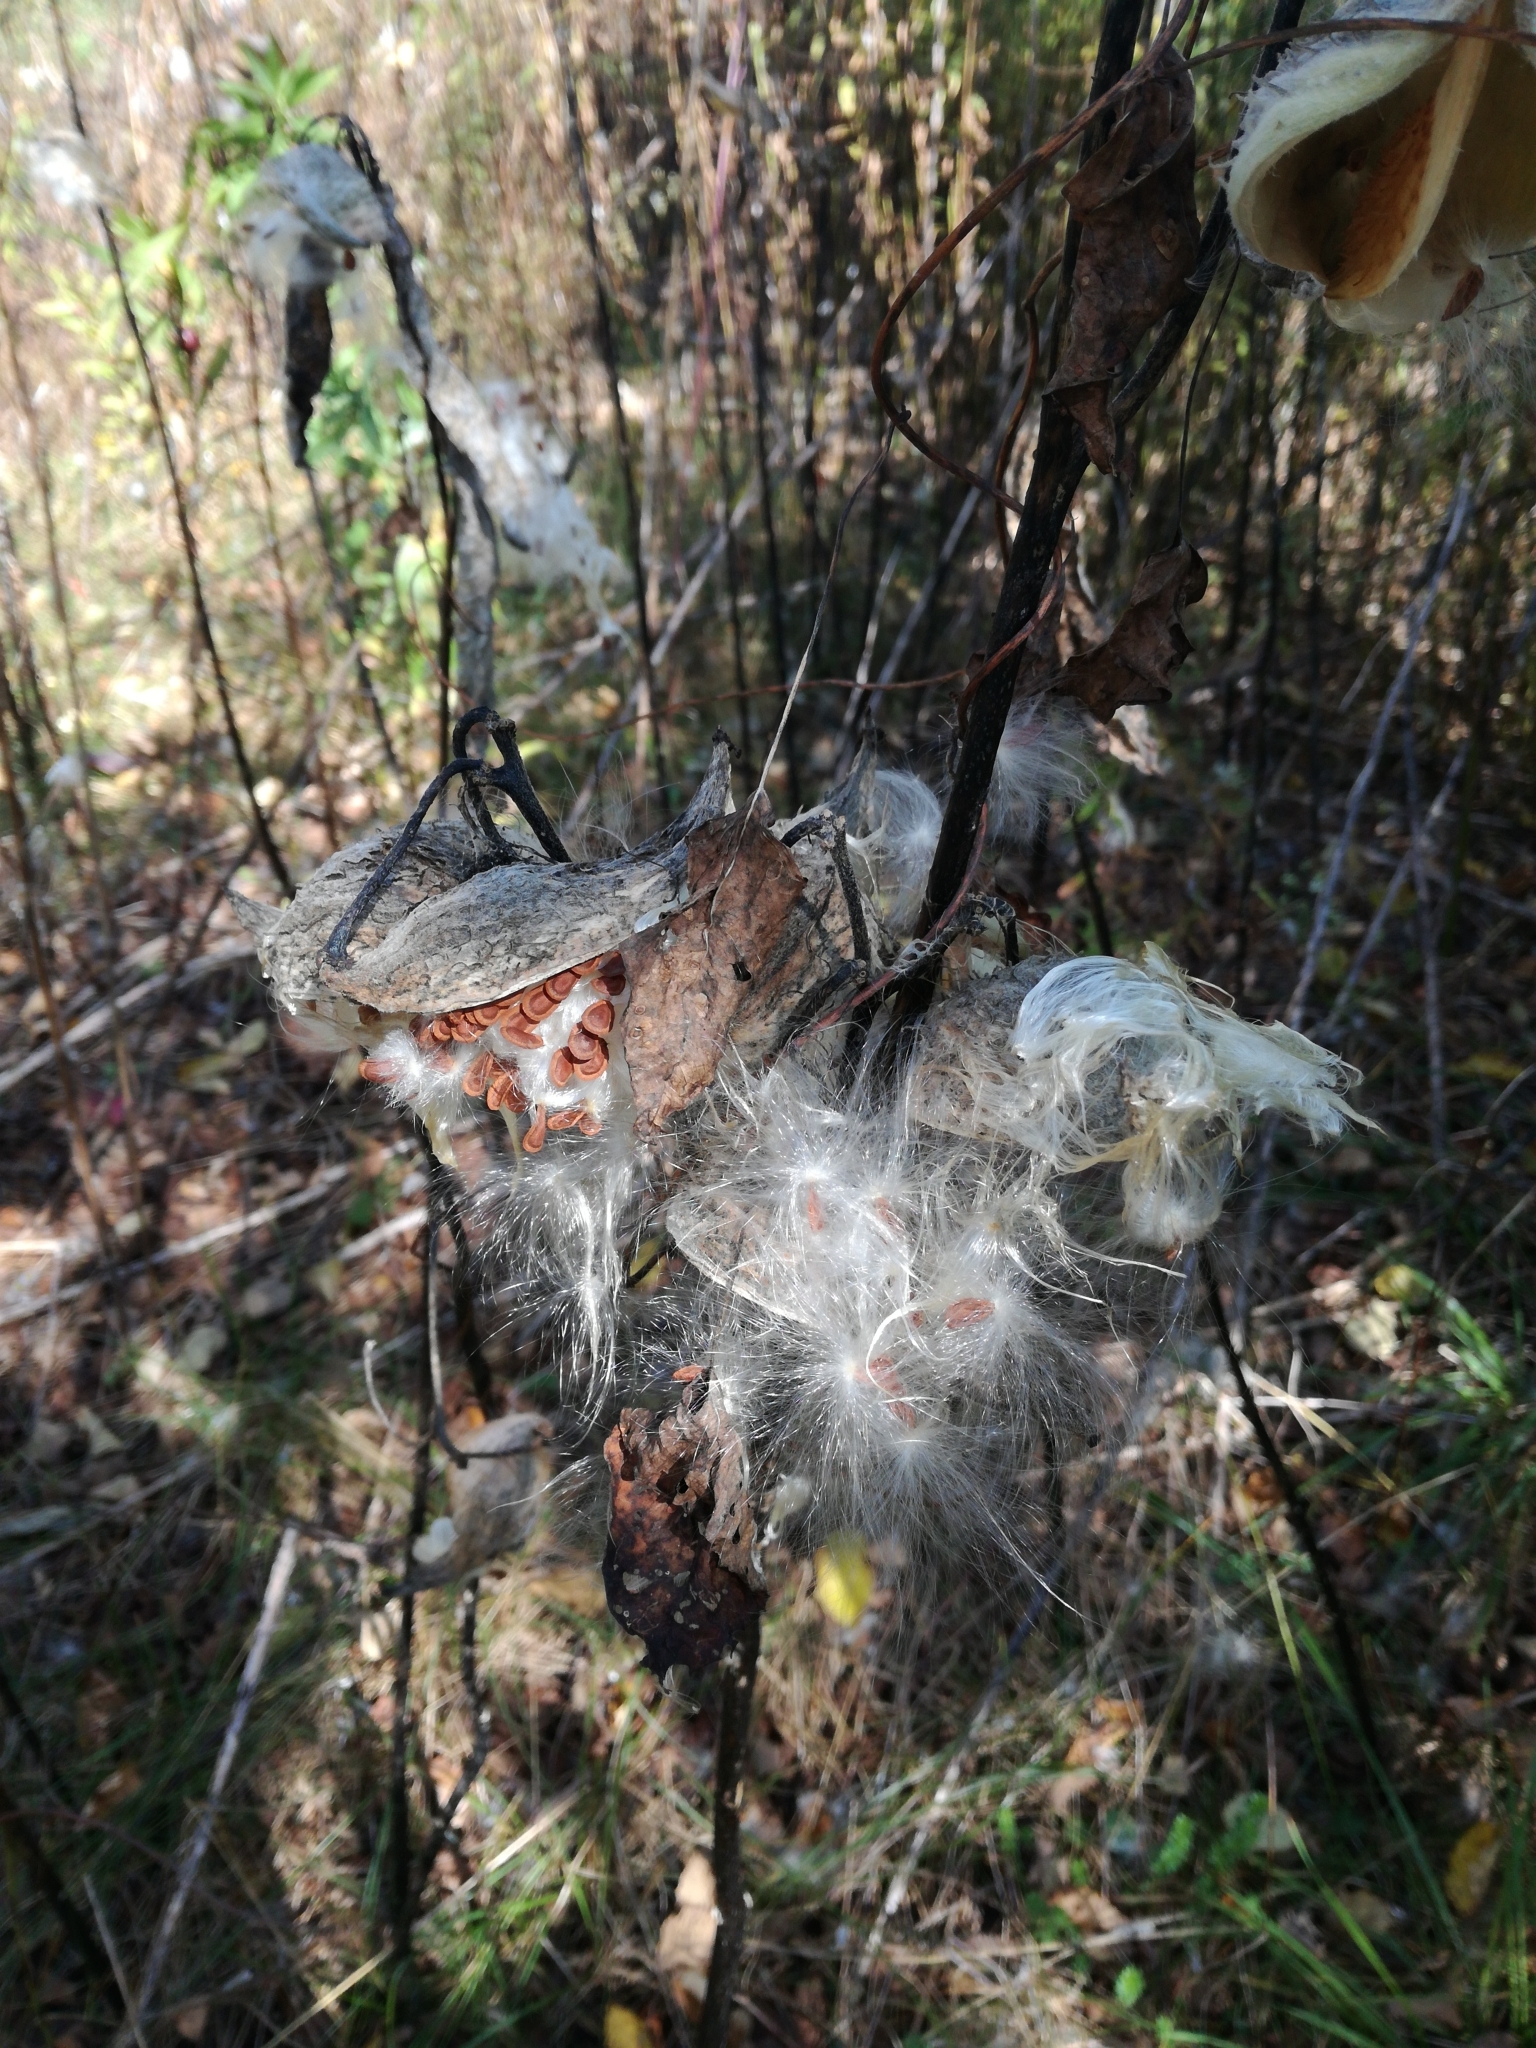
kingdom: Plantae
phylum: Tracheophyta
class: Magnoliopsida
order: Gentianales
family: Apocynaceae
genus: Asclepias
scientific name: Asclepias syriaca
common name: Common milkweed
